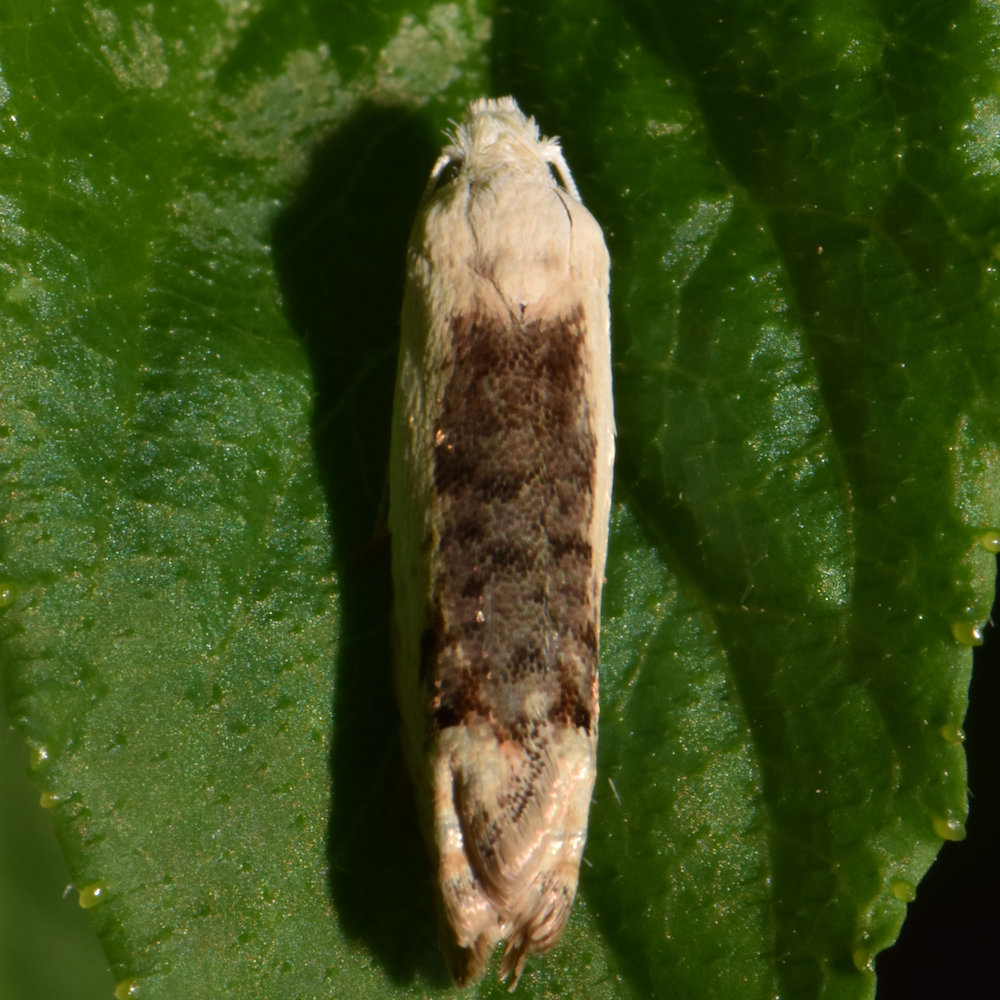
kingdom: Animalia
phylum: Arthropoda
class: Insecta
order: Lepidoptera
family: Tortricidae
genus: Pelochrista
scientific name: Pelochrista heathiana
